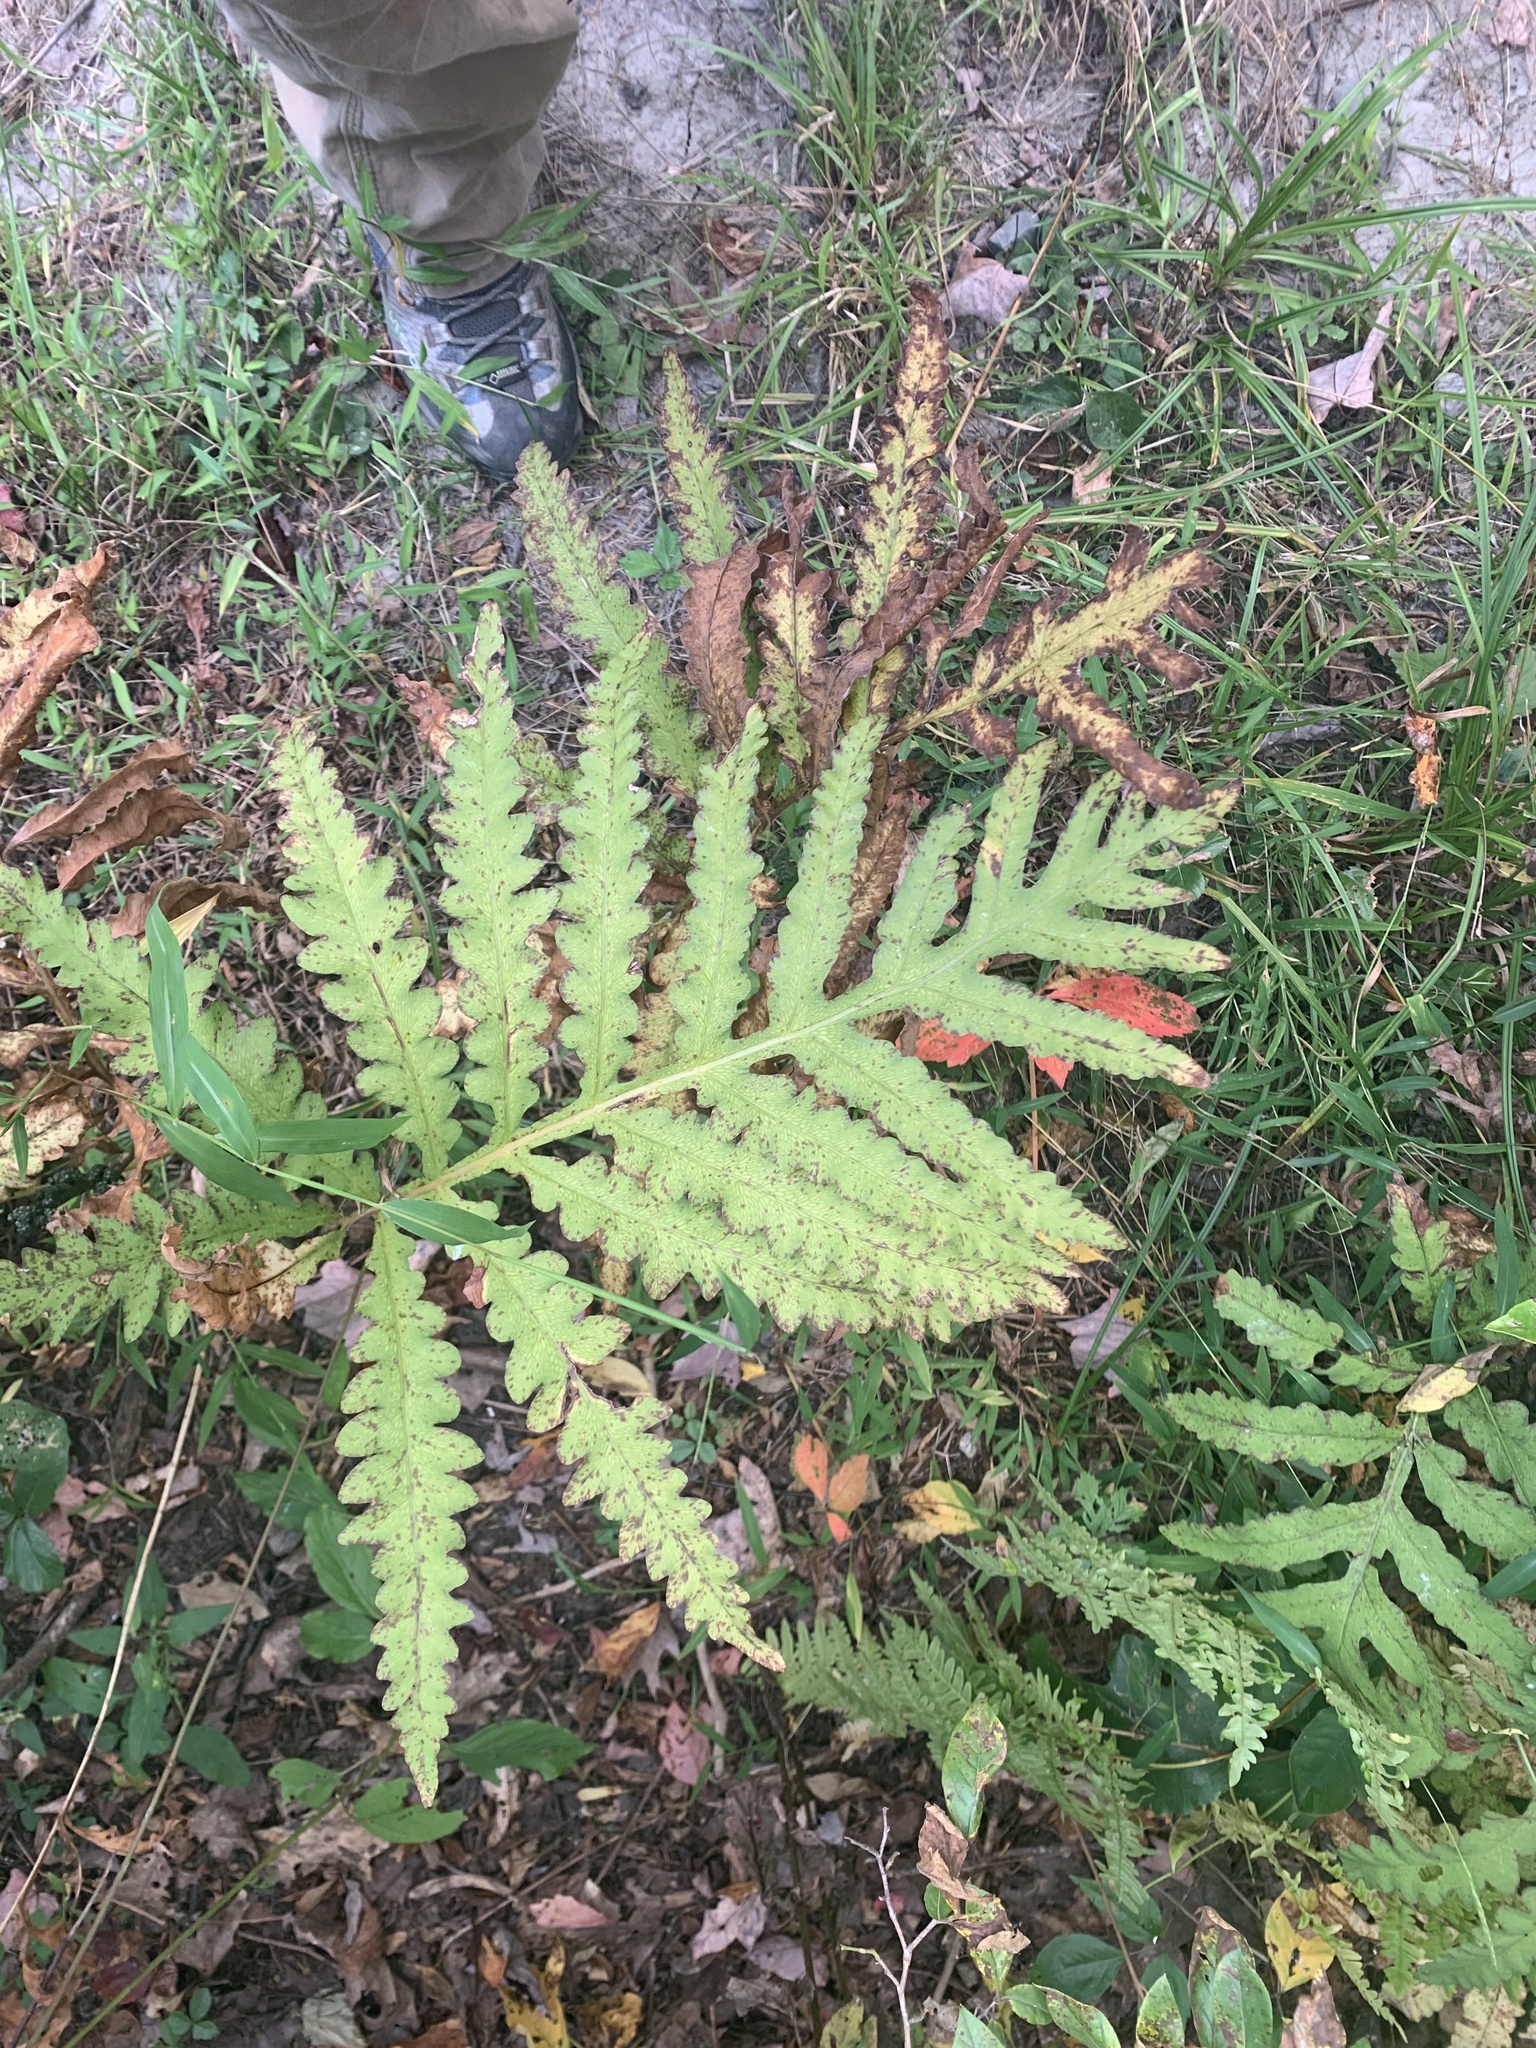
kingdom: Plantae
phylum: Tracheophyta
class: Polypodiopsida
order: Polypodiales
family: Onocleaceae
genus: Onoclea
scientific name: Onoclea sensibilis
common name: Sensitive fern
